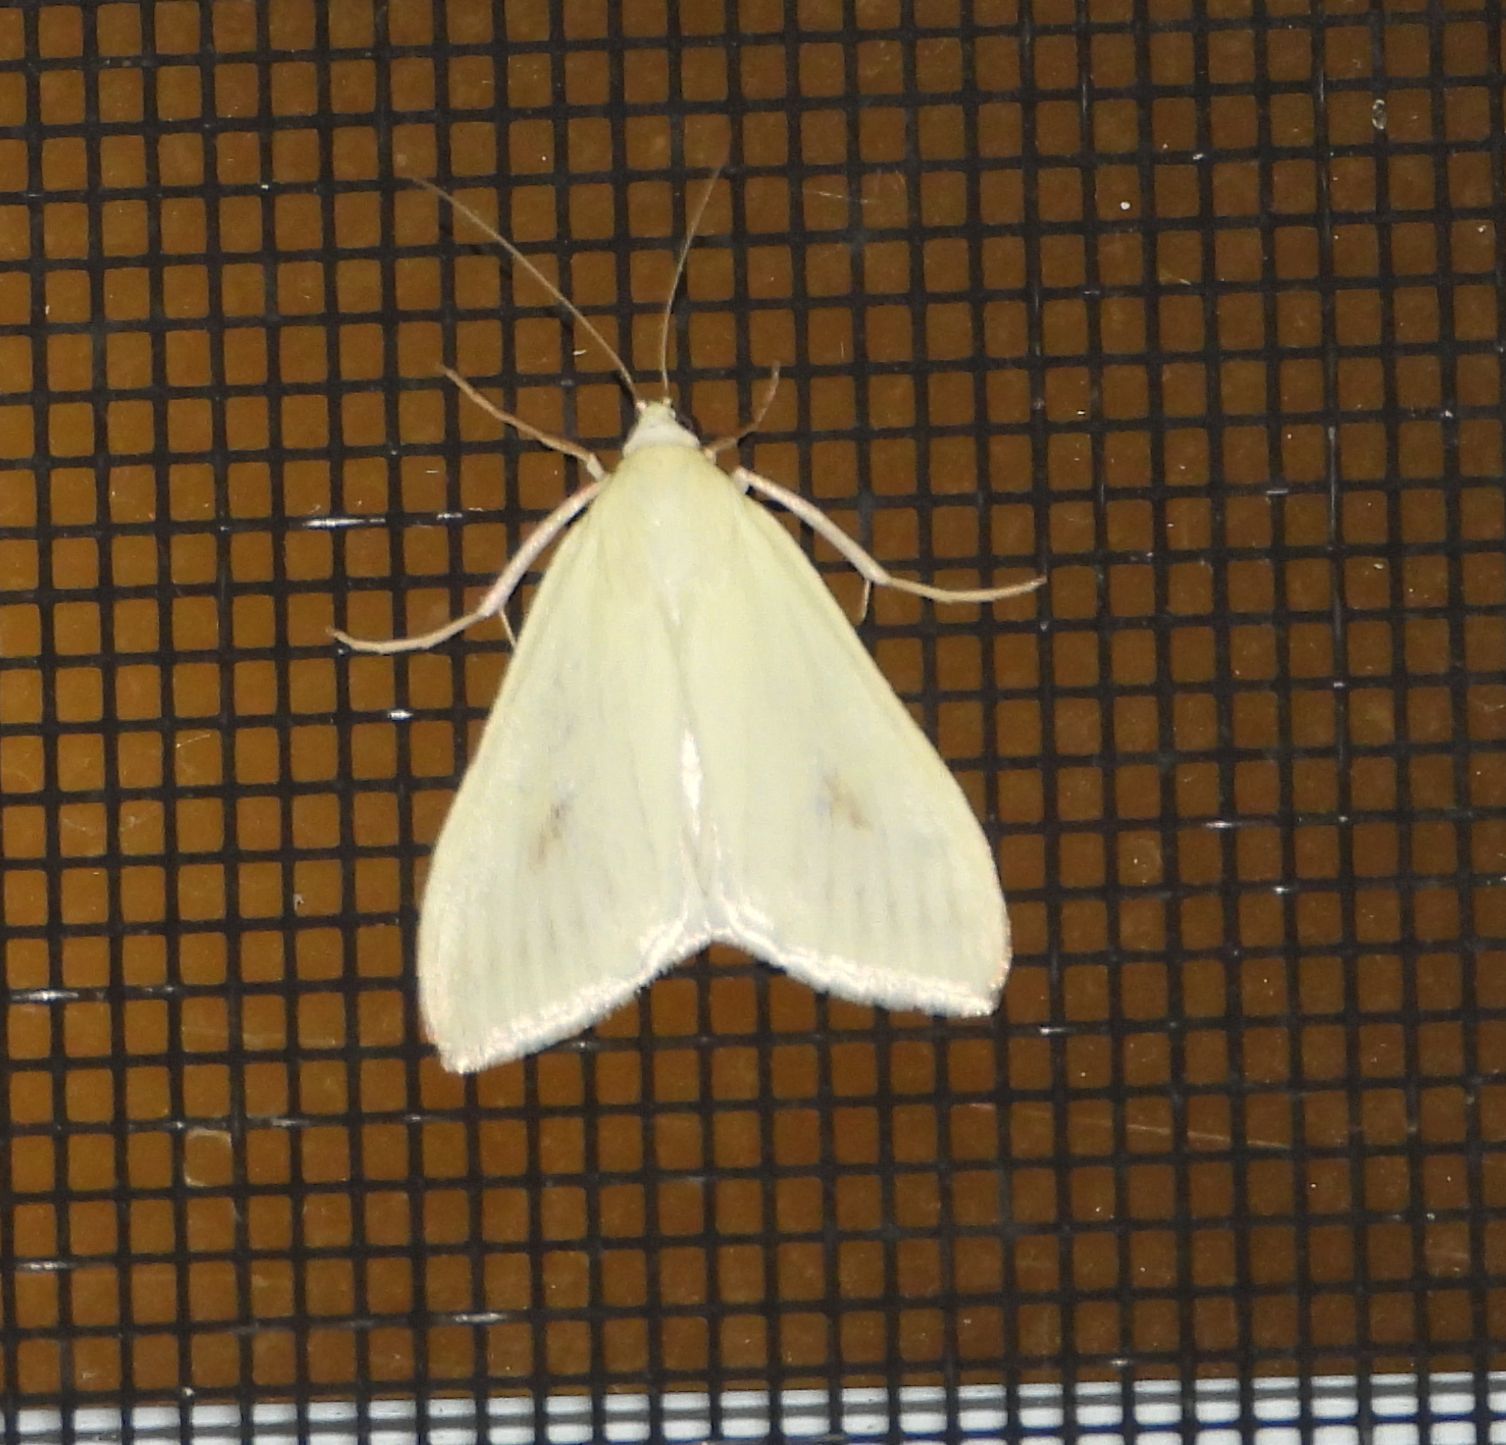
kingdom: Animalia
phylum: Arthropoda
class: Insecta
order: Lepidoptera
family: Crambidae
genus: Sitochroa
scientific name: Sitochroa palealis
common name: Greenish-yellow sitochroa moth
